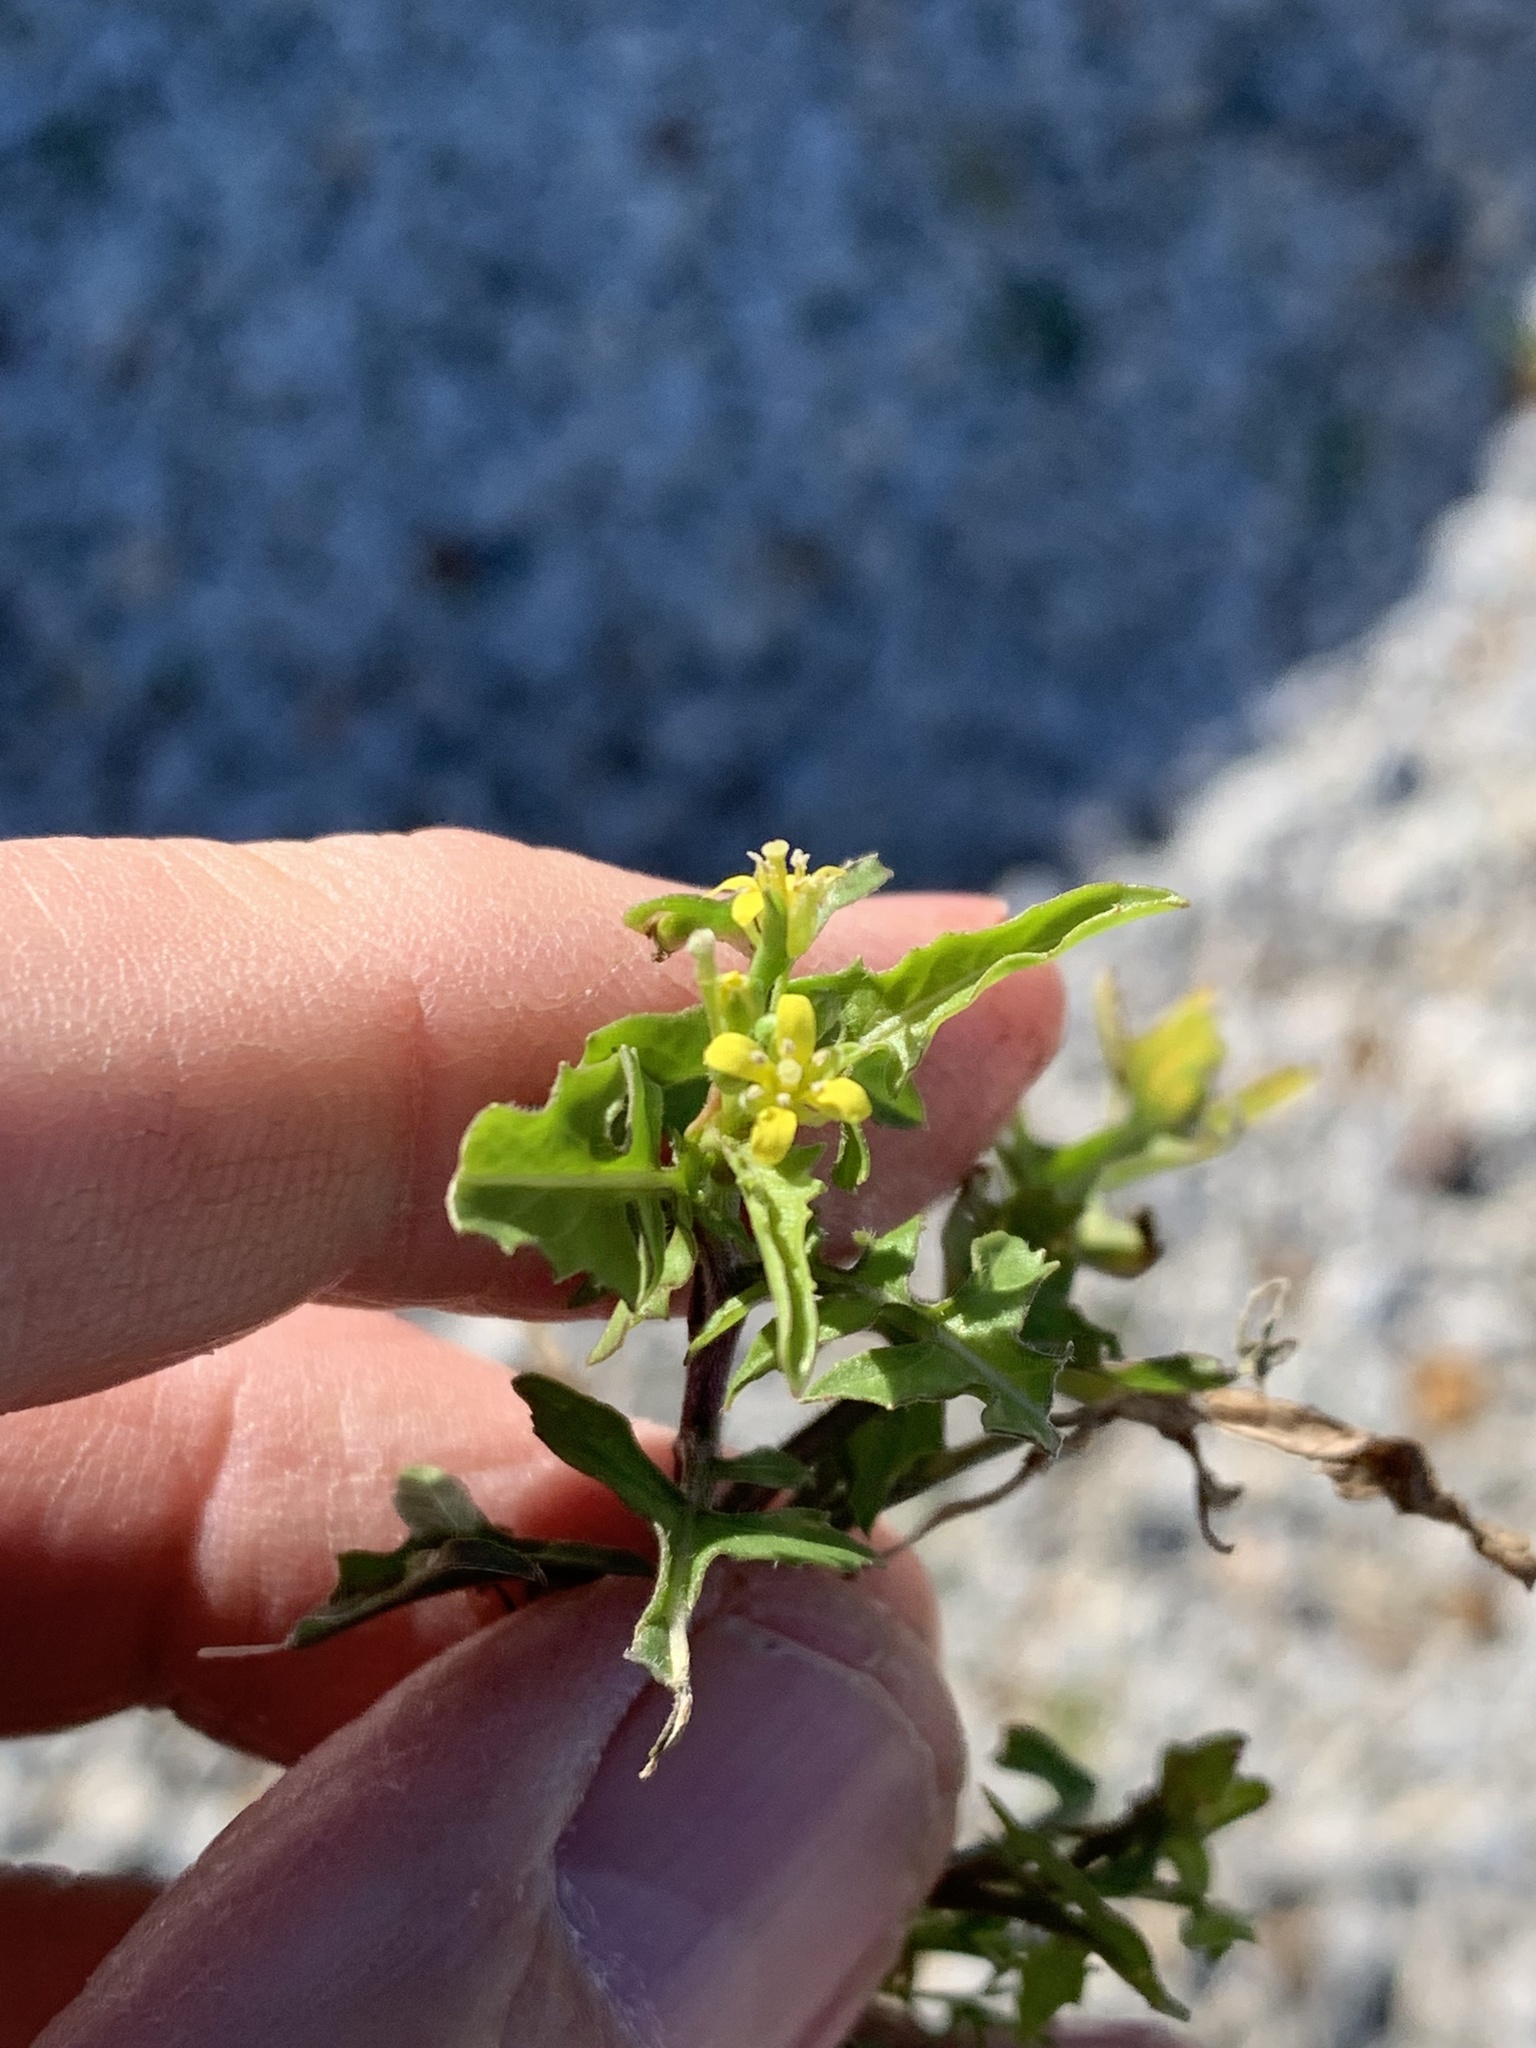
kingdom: Plantae
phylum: Tracheophyta
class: Magnoliopsida
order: Brassicales
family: Brassicaceae
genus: Sisymbrium
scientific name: Sisymbrium irio
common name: London rocket
